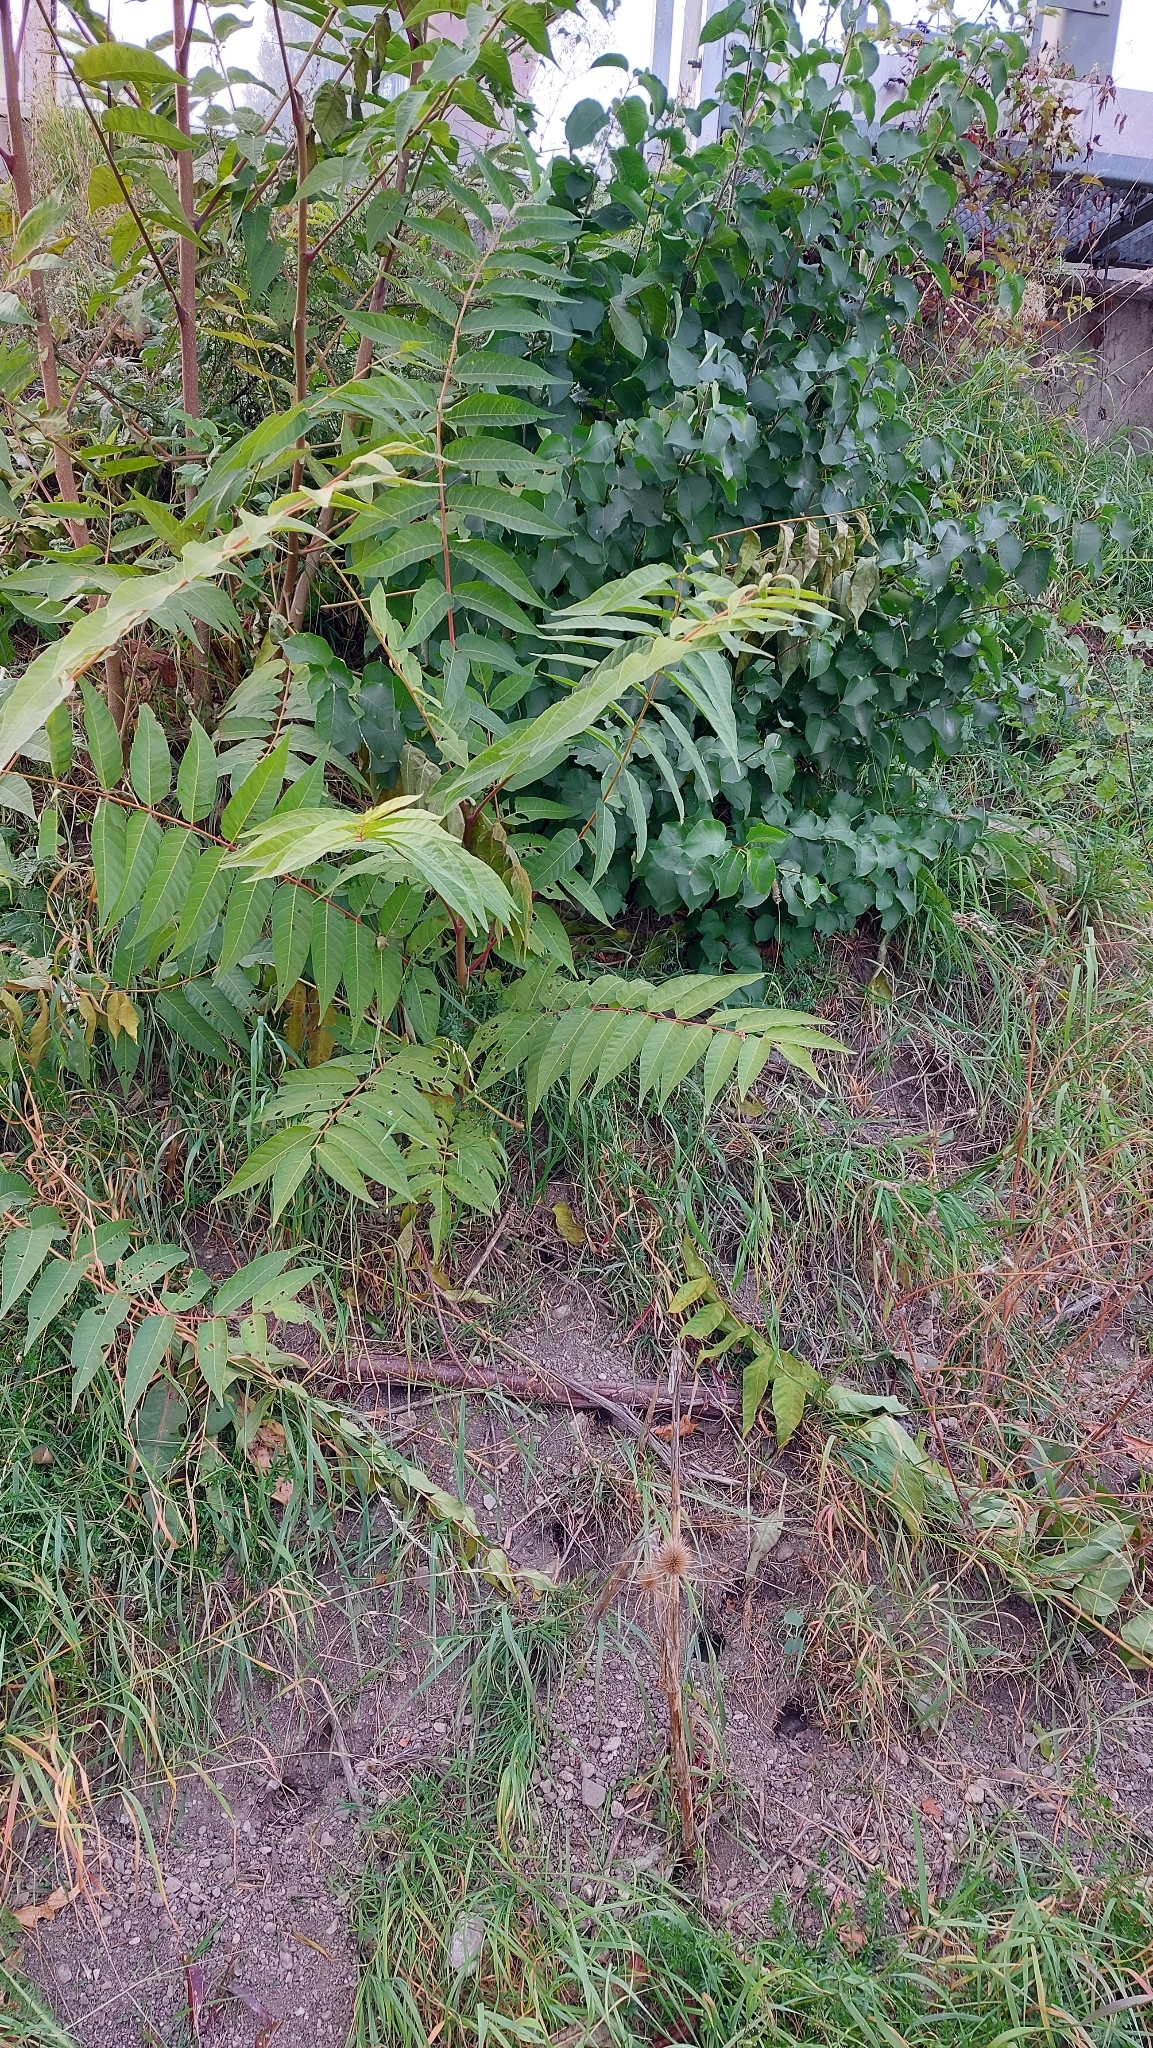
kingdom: Plantae
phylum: Tracheophyta
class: Magnoliopsida
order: Sapindales
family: Simaroubaceae
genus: Ailanthus
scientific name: Ailanthus altissima
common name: Tree-of-heaven
